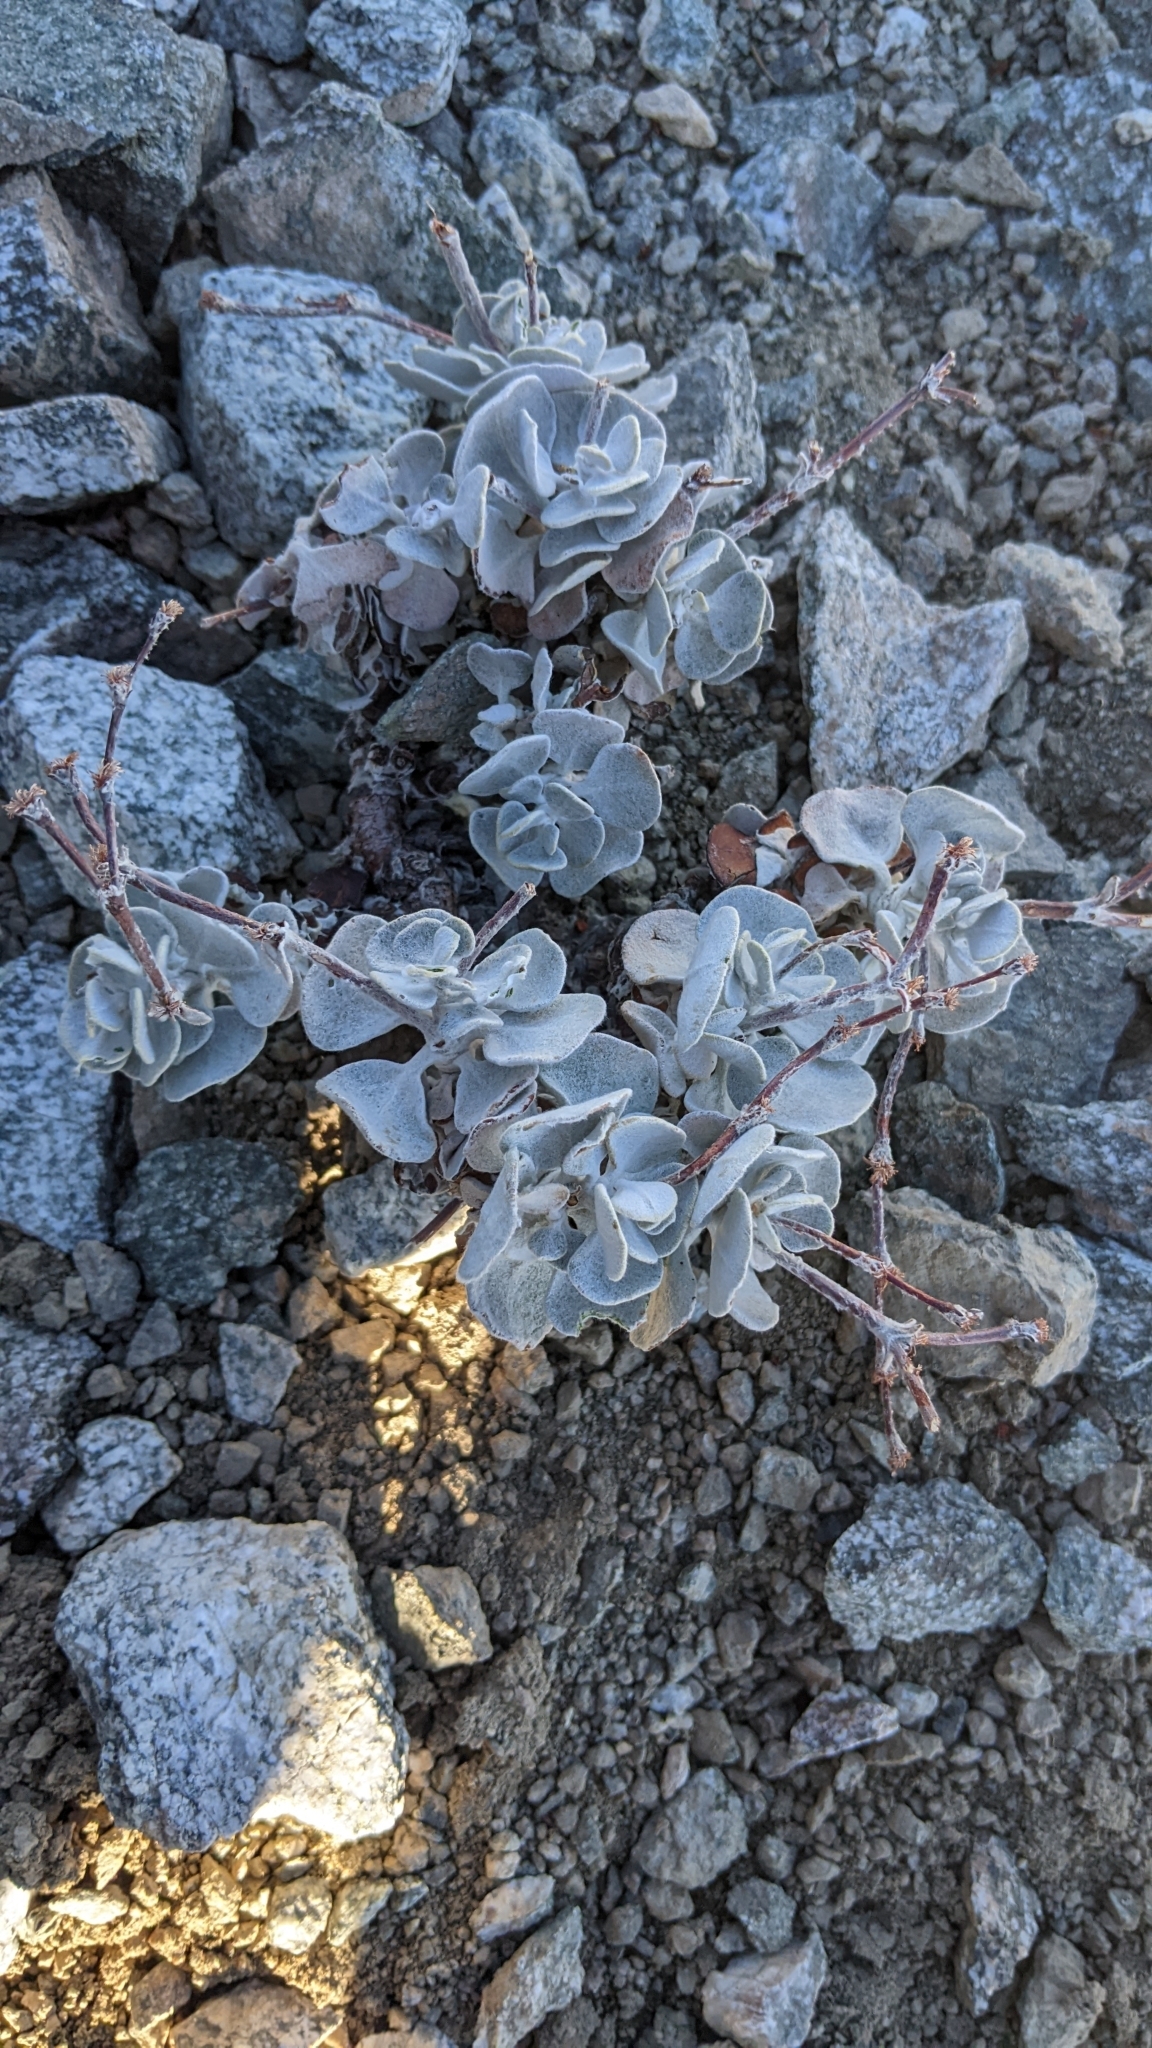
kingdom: Plantae
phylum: Tracheophyta
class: Magnoliopsida
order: Caryophyllales
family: Polygonaceae
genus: Eriogonum
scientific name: Eriogonum saxatile
